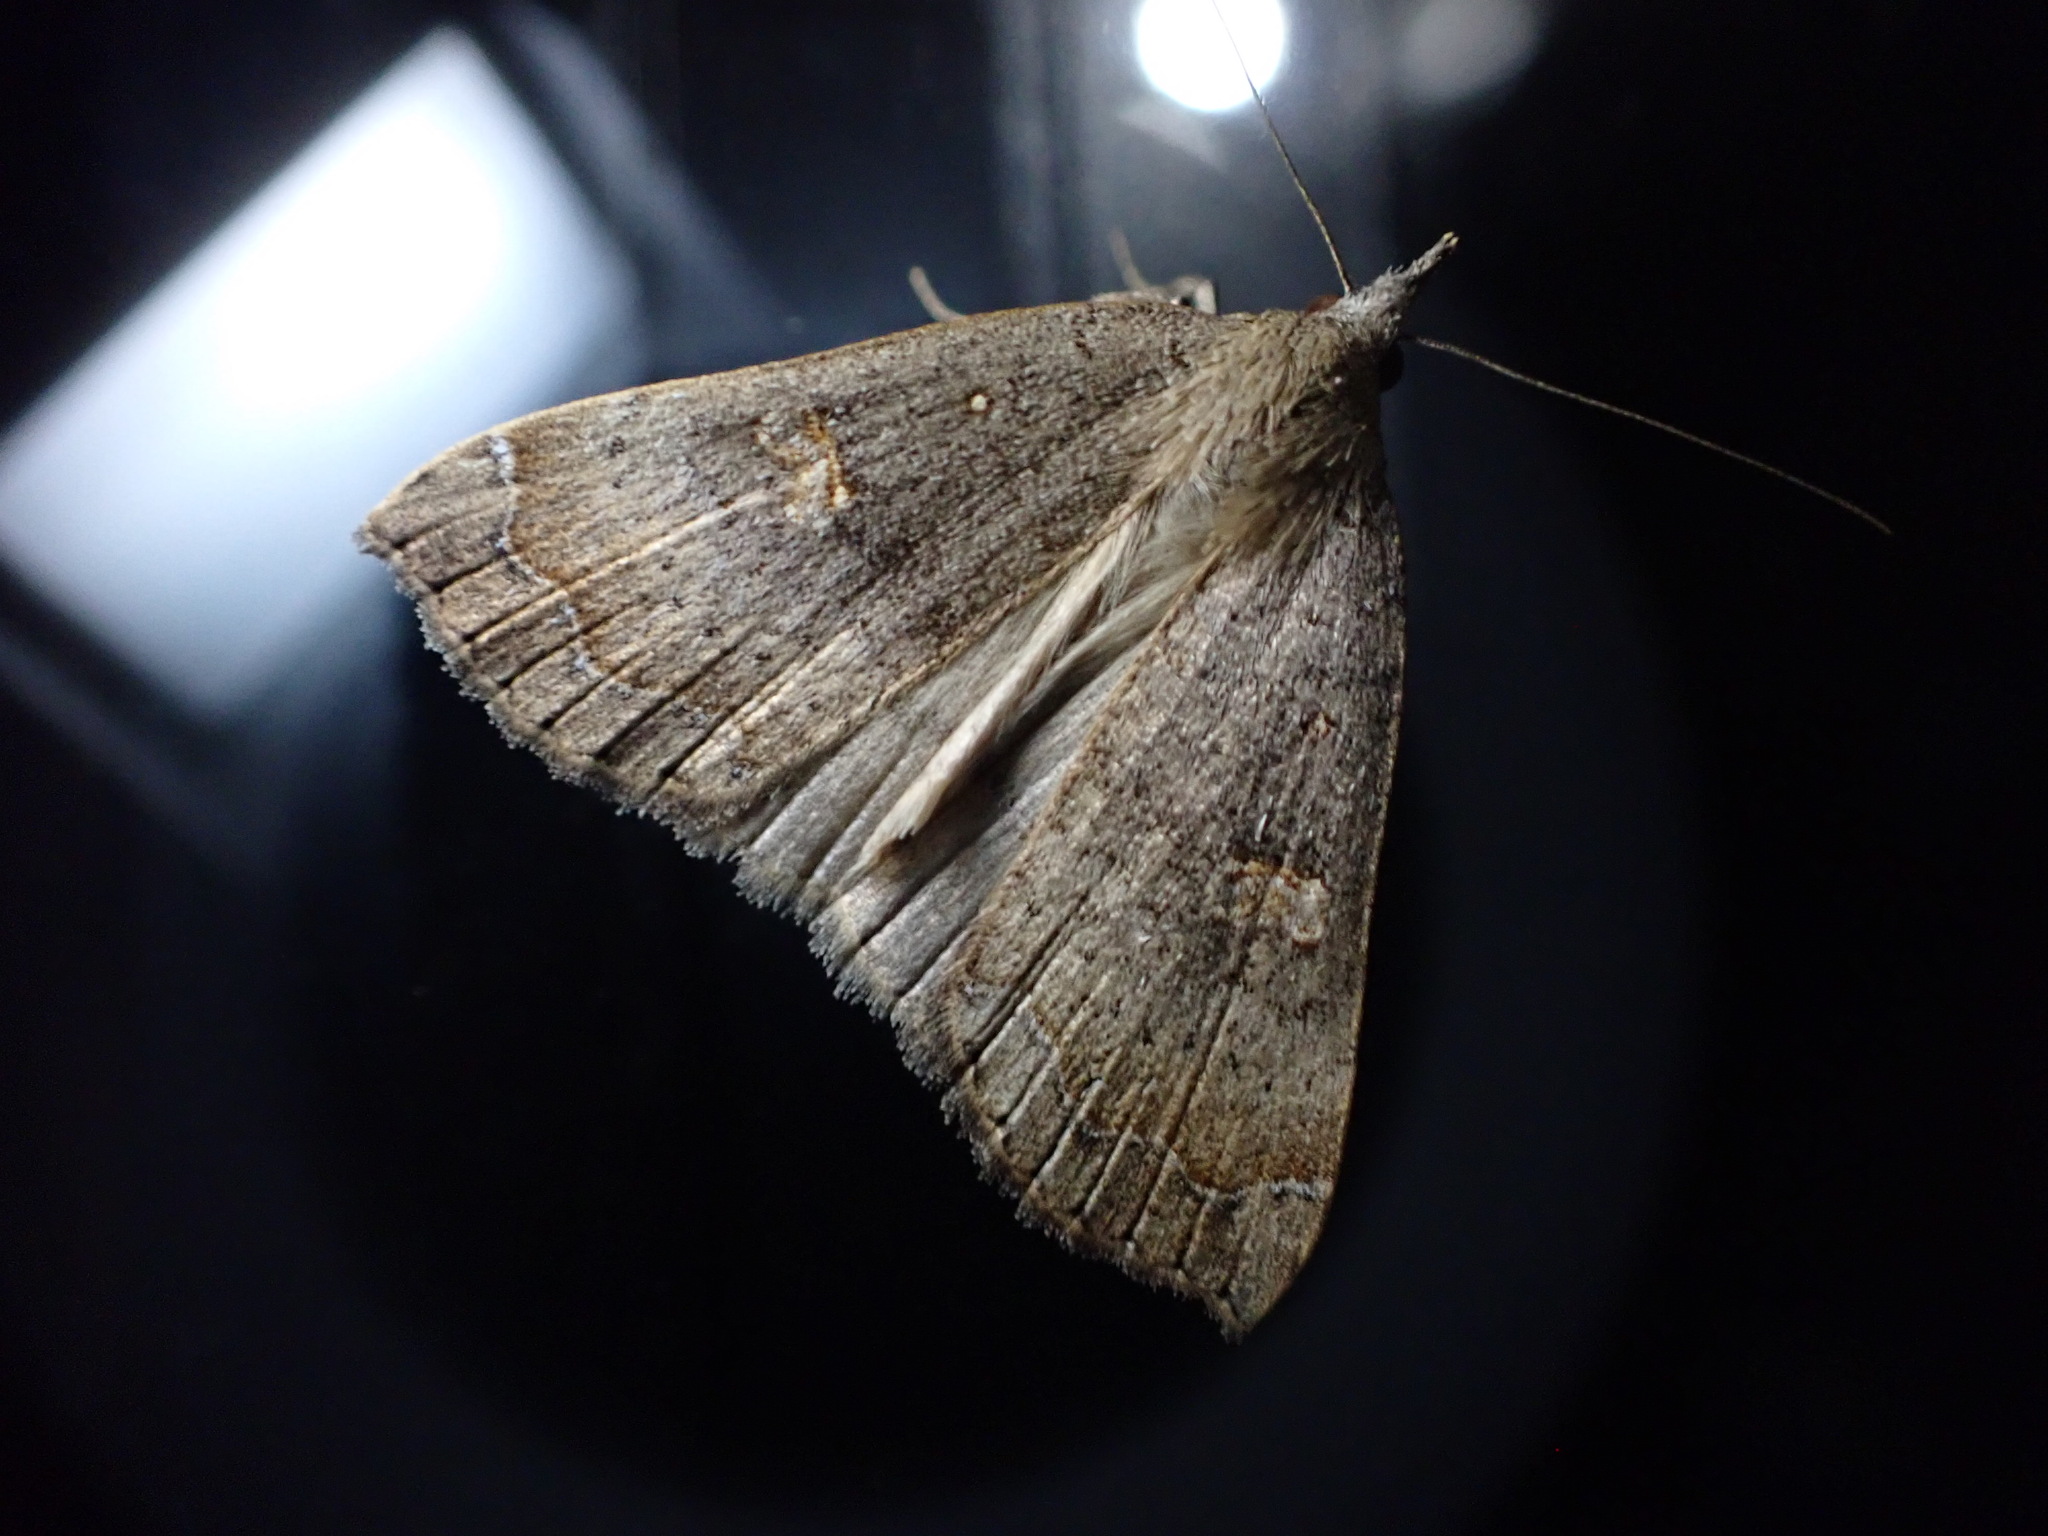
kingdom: Animalia
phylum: Arthropoda
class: Insecta
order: Lepidoptera
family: Erebidae
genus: Rhapsa
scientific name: Rhapsa scotosialis
